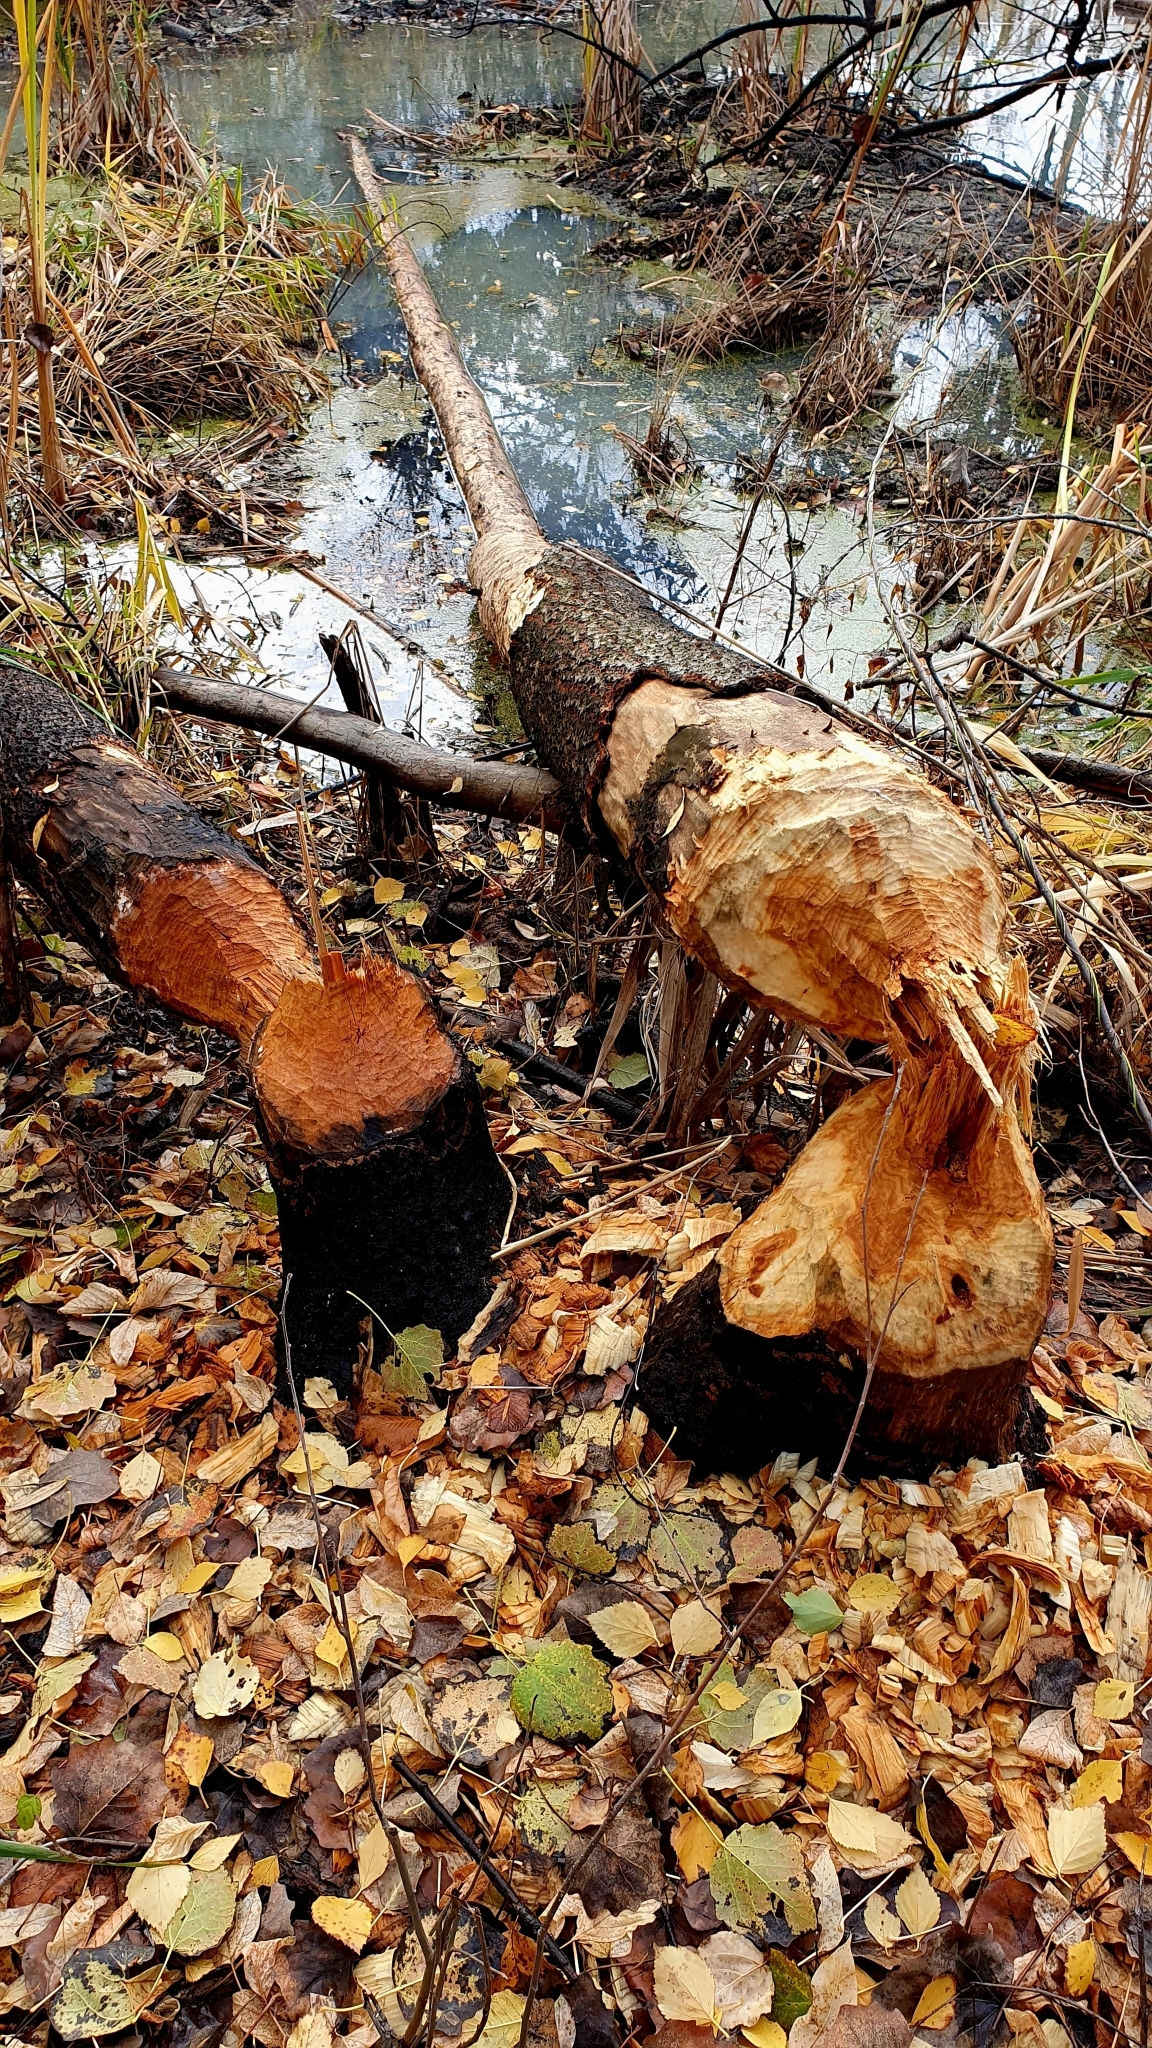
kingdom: Animalia
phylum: Chordata
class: Mammalia
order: Rodentia
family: Castoridae
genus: Castor
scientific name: Castor fiber
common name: Eurasian beaver
